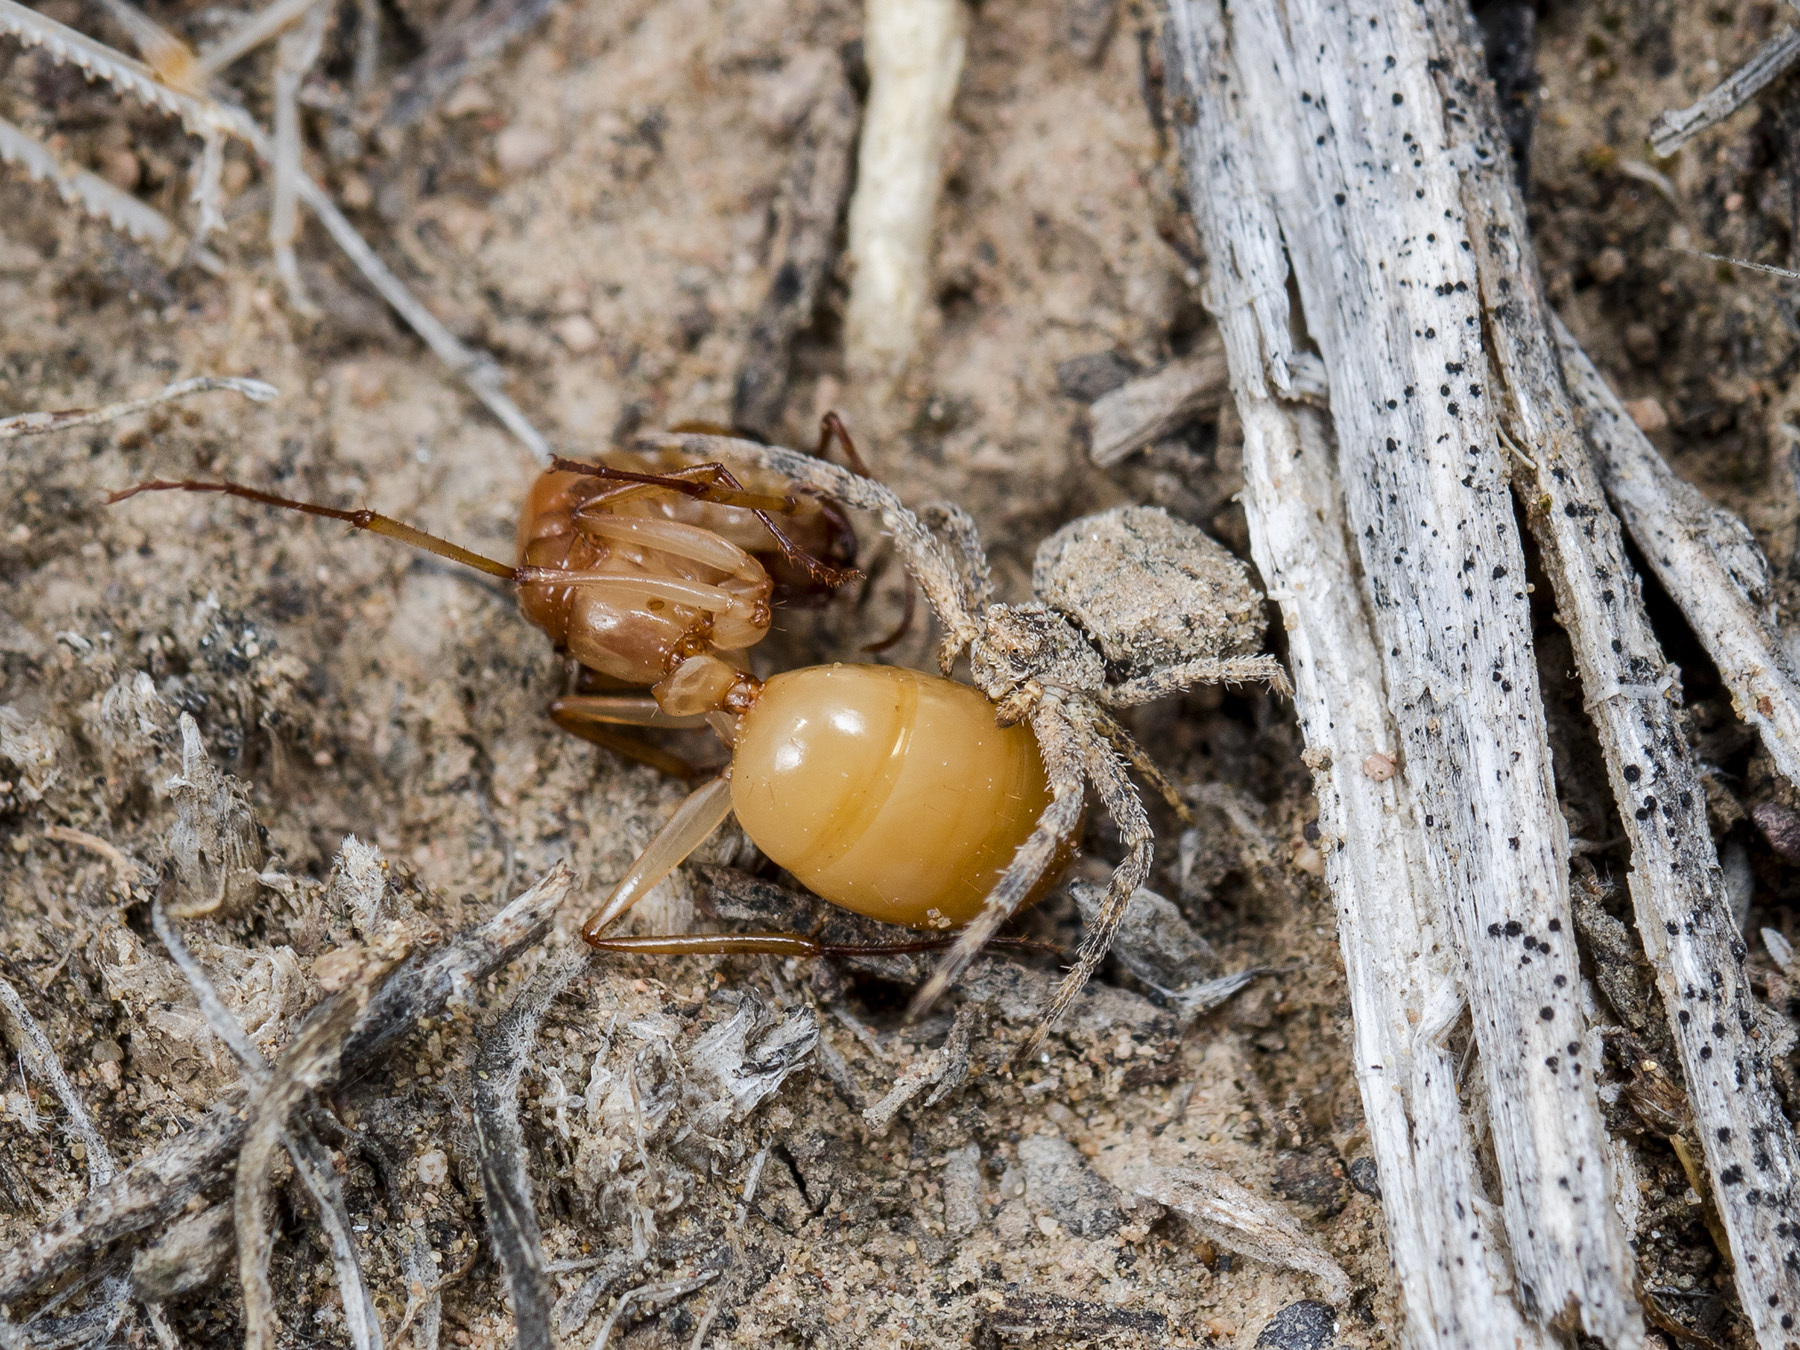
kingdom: Animalia
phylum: Arthropoda
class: Insecta
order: Hymenoptera
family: Formicidae
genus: Camponotus
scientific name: Camponotus turkestanus
